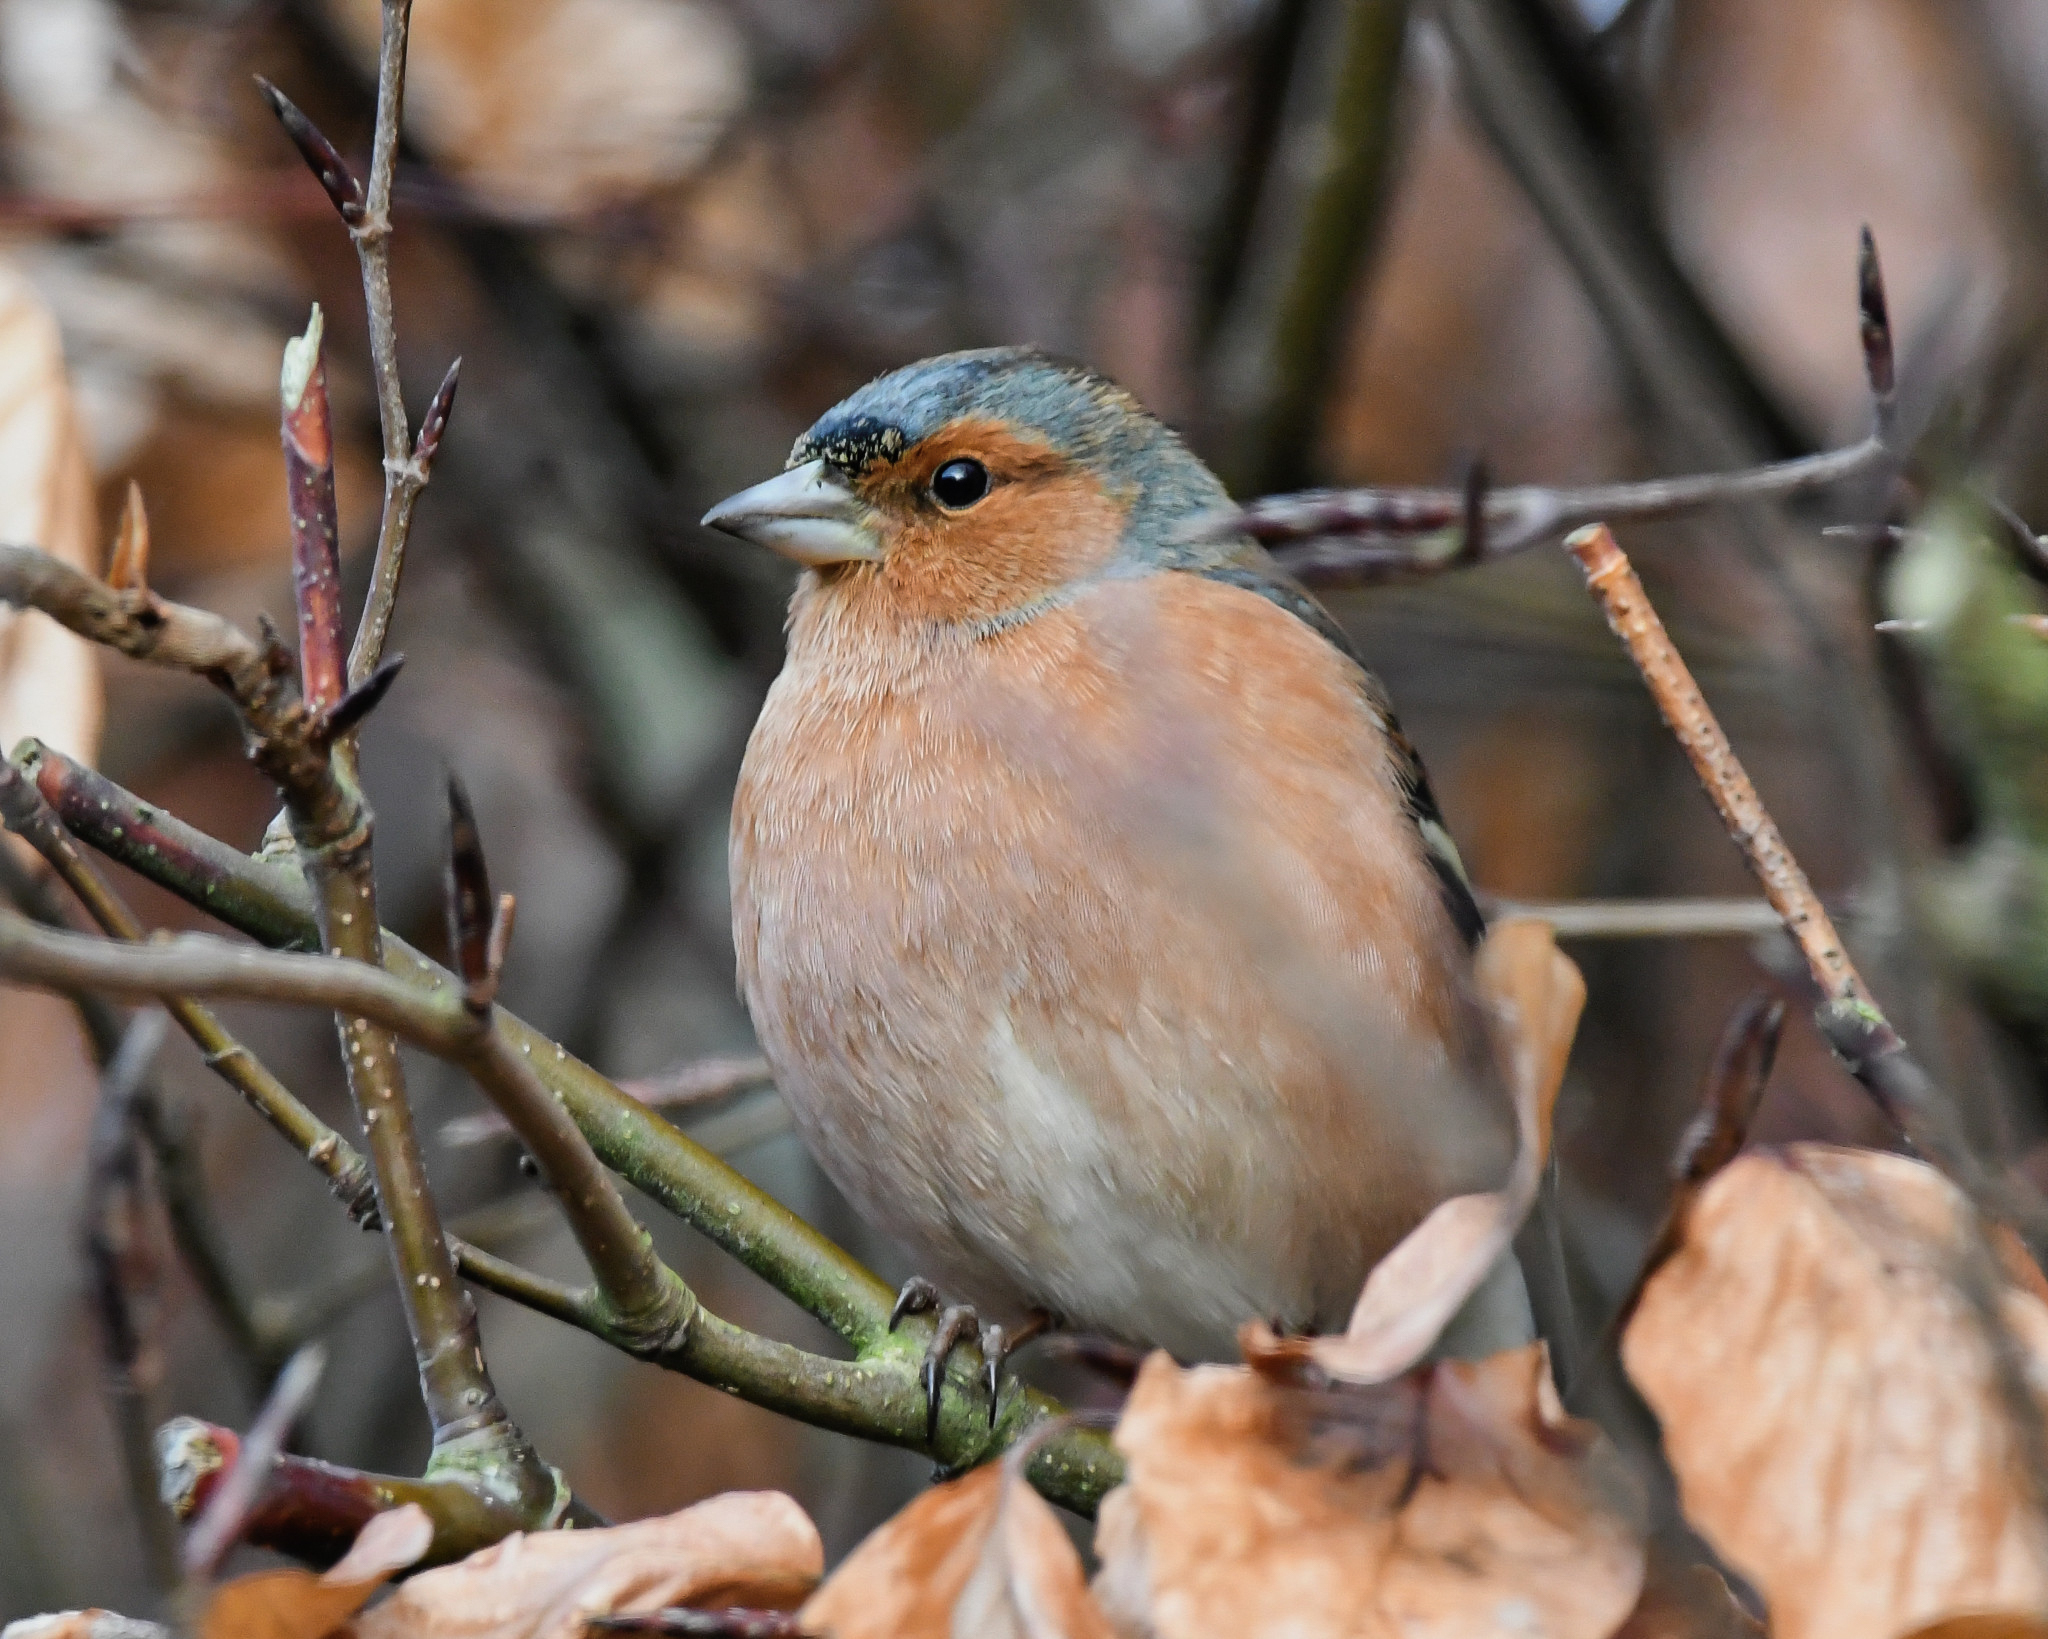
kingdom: Animalia
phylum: Chordata
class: Aves
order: Passeriformes
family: Fringillidae
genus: Fringilla
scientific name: Fringilla coelebs
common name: Common chaffinch
